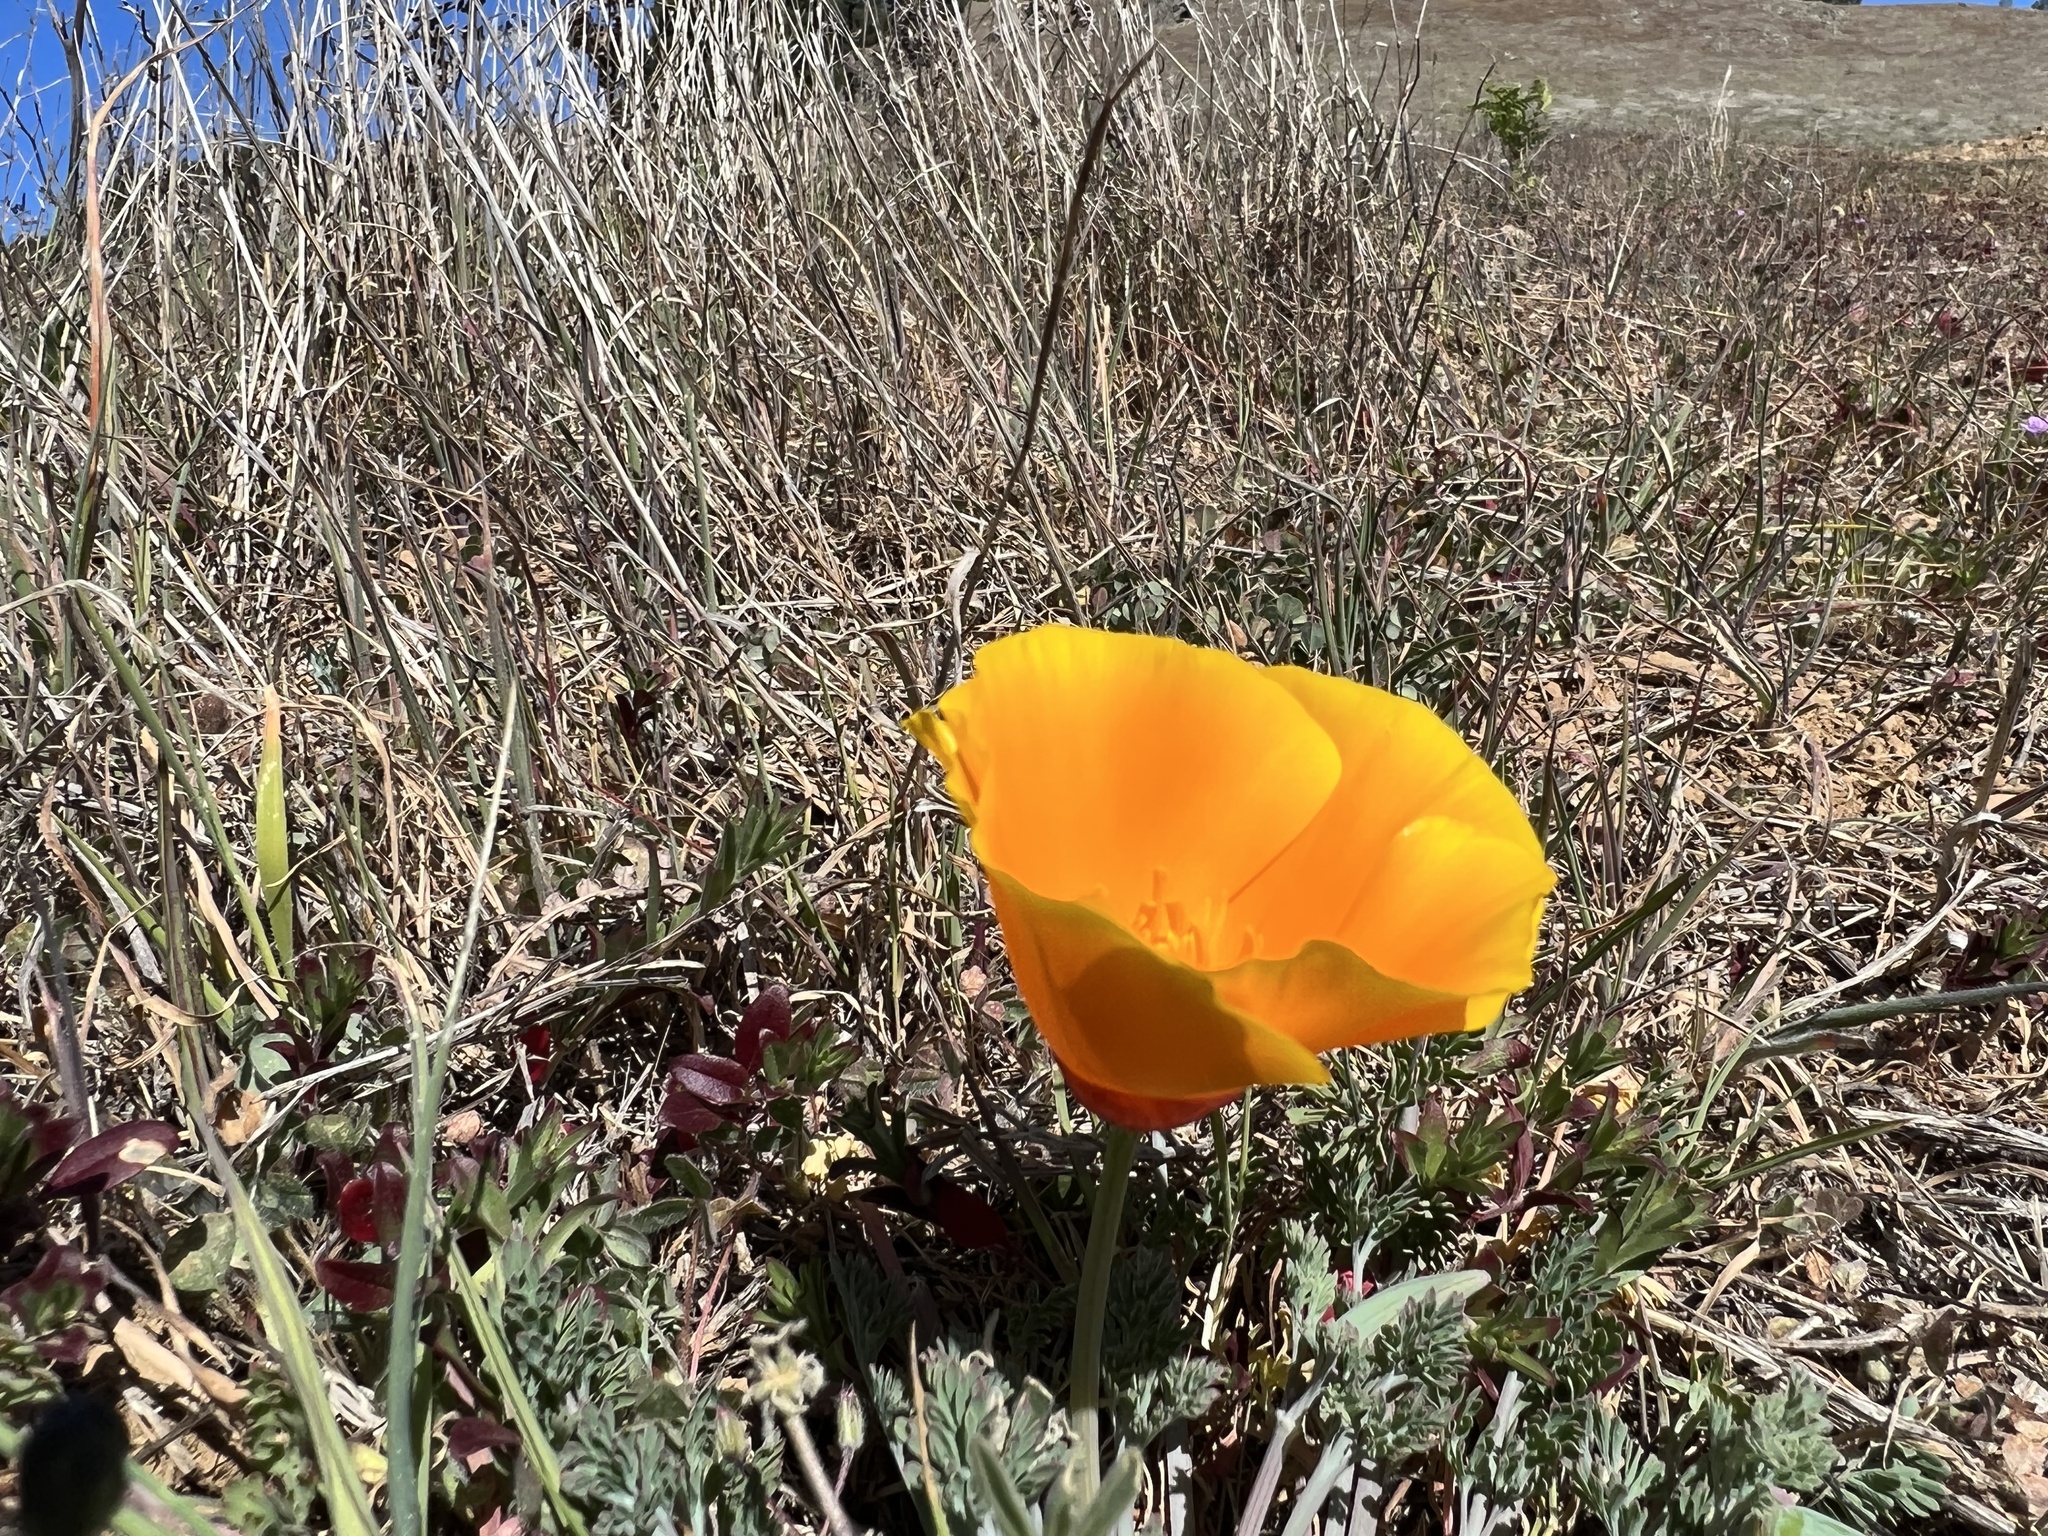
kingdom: Plantae
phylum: Tracheophyta
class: Magnoliopsida
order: Ranunculales
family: Papaveraceae
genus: Eschscholzia
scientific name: Eschscholzia californica
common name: California poppy
